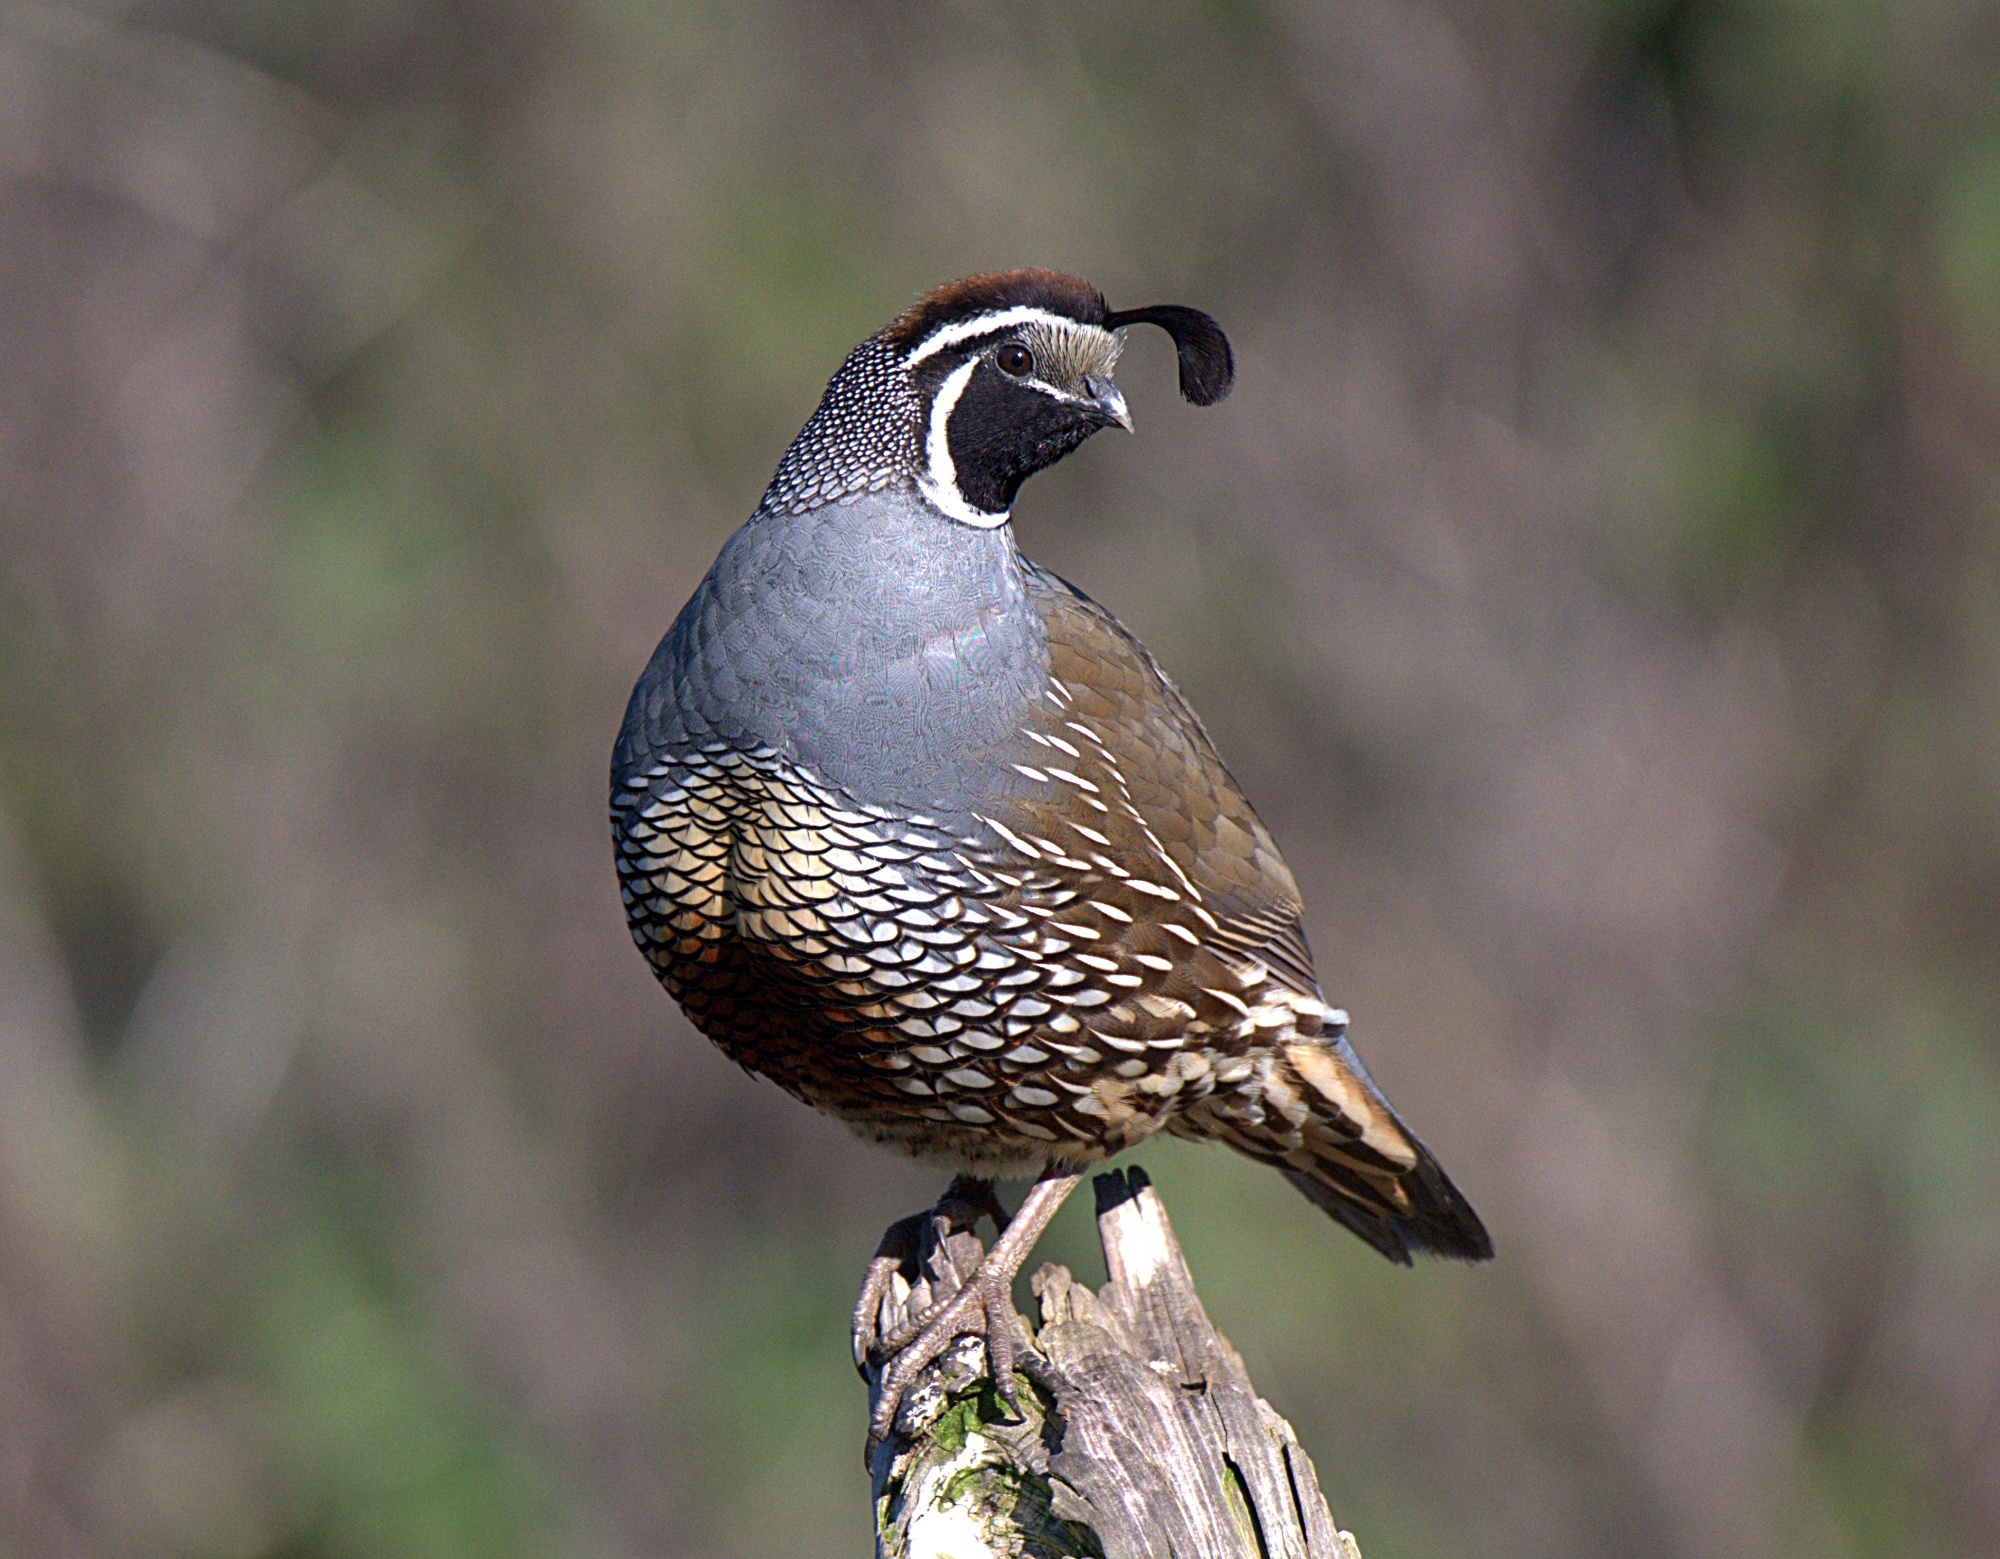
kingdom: Animalia
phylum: Chordata
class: Aves
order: Galliformes
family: Odontophoridae
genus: Callipepla
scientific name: Callipepla californica
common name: California quail
